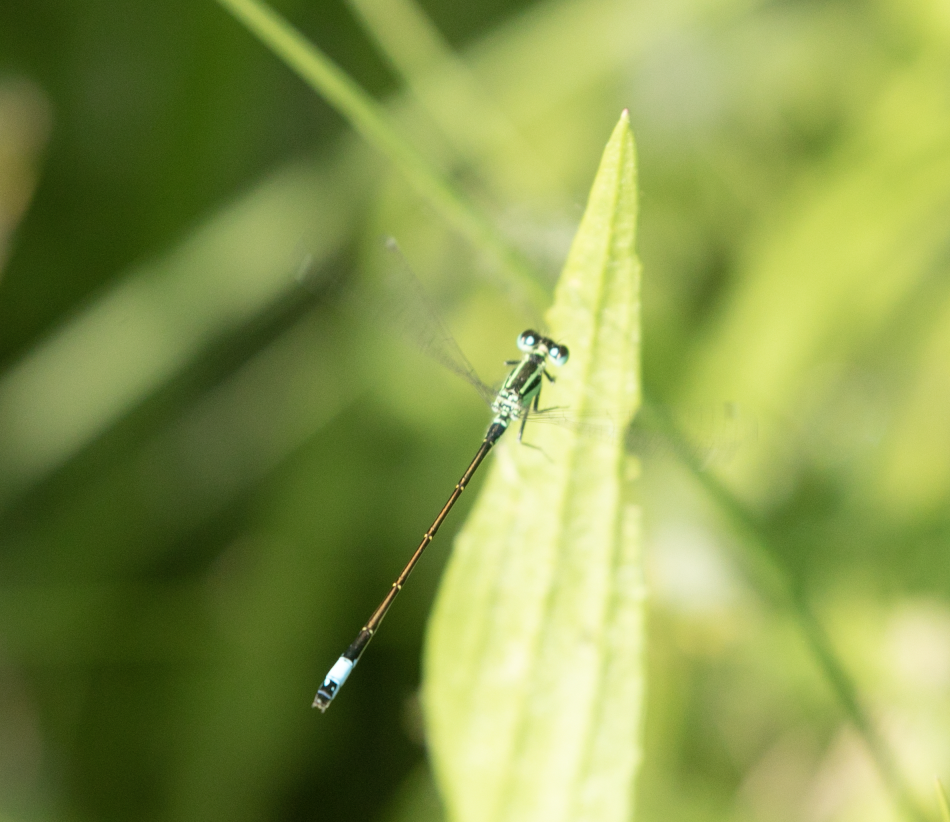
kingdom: Animalia
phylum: Arthropoda
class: Insecta
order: Odonata
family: Coenagrionidae
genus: Ischnura
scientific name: Ischnura elegans
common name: Blue-tailed damselfly
